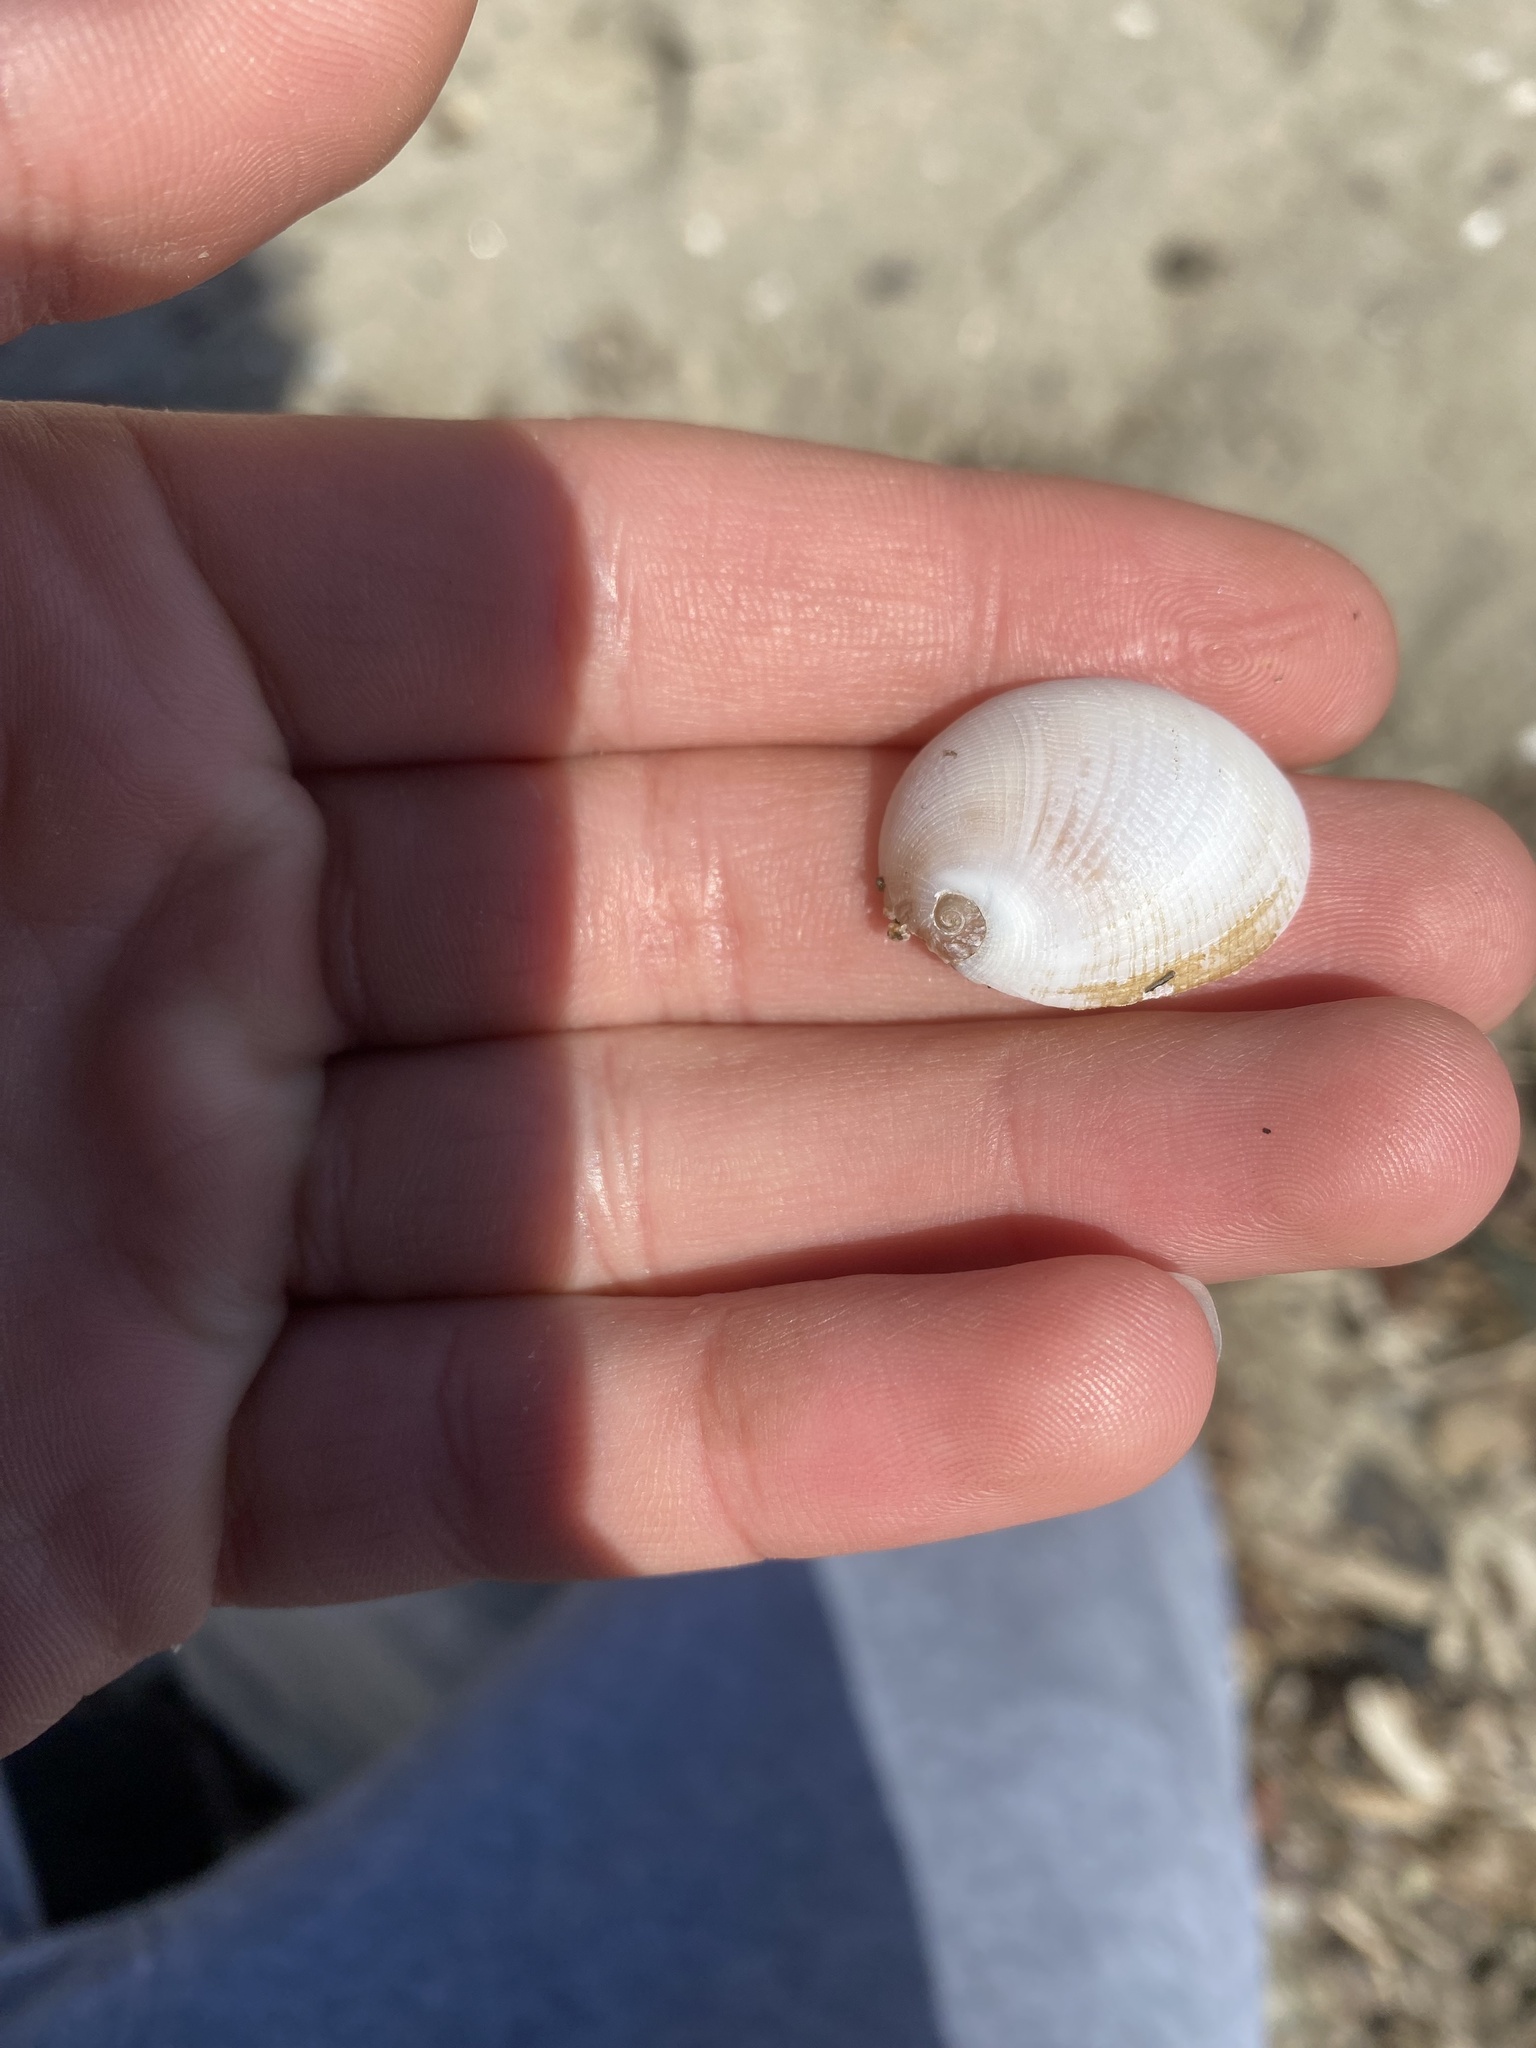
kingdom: Animalia
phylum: Mollusca
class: Gastropoda
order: Littorinimorpha
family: Naticidae
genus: Sinum
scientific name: Sinum scopulosum
